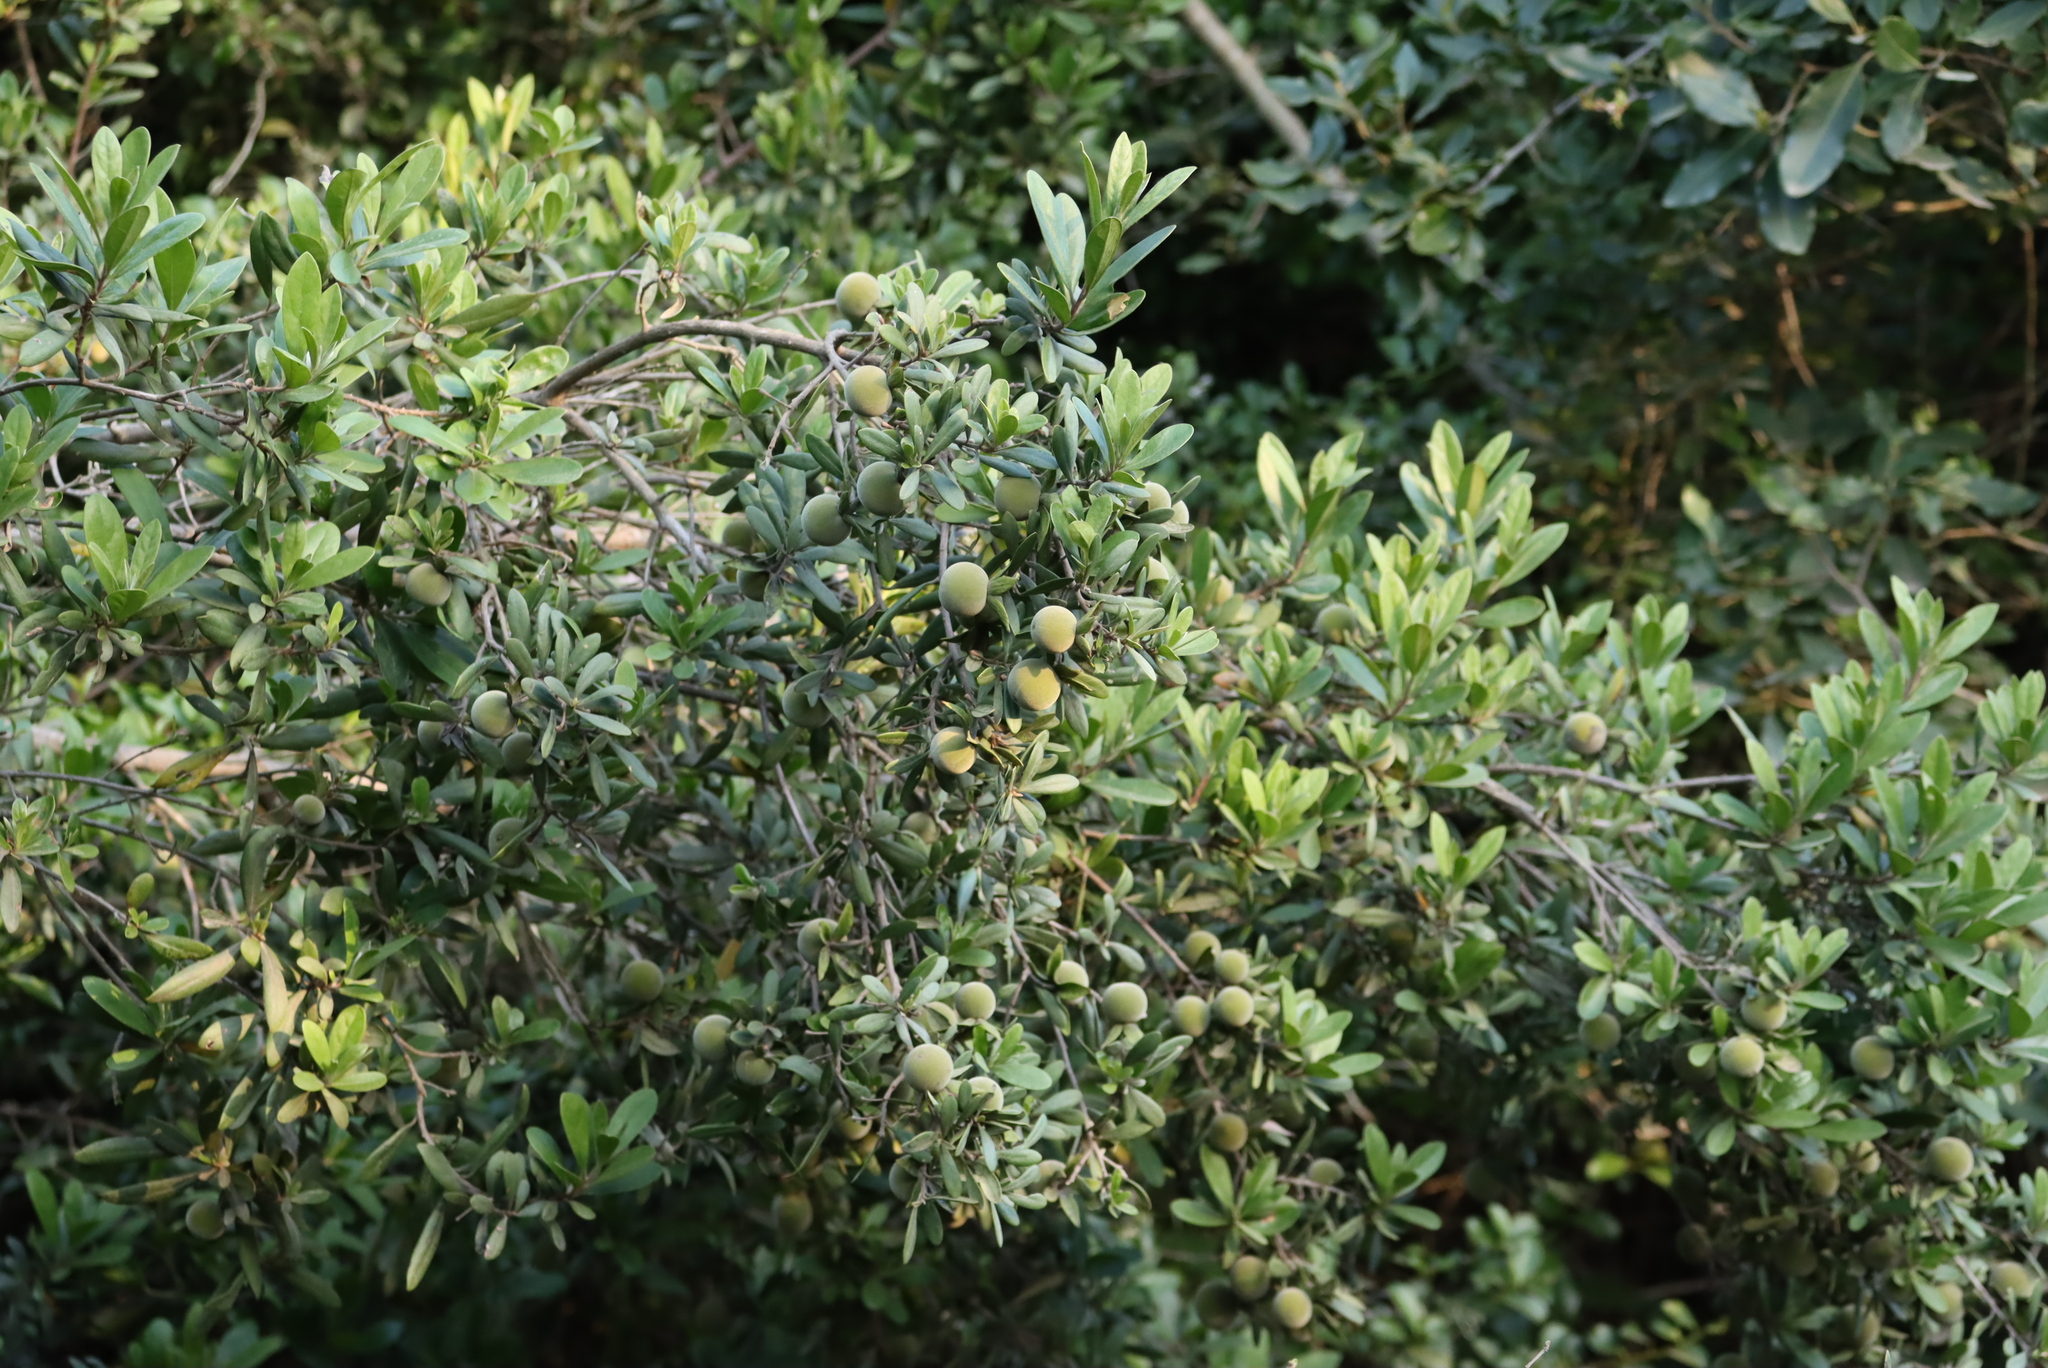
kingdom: Plantae
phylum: Tracheophyta
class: Magnoliopsida
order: Ericales
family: Ebenaceae
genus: Diospyros
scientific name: Diospyros dichrophylla
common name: Common star-apple
